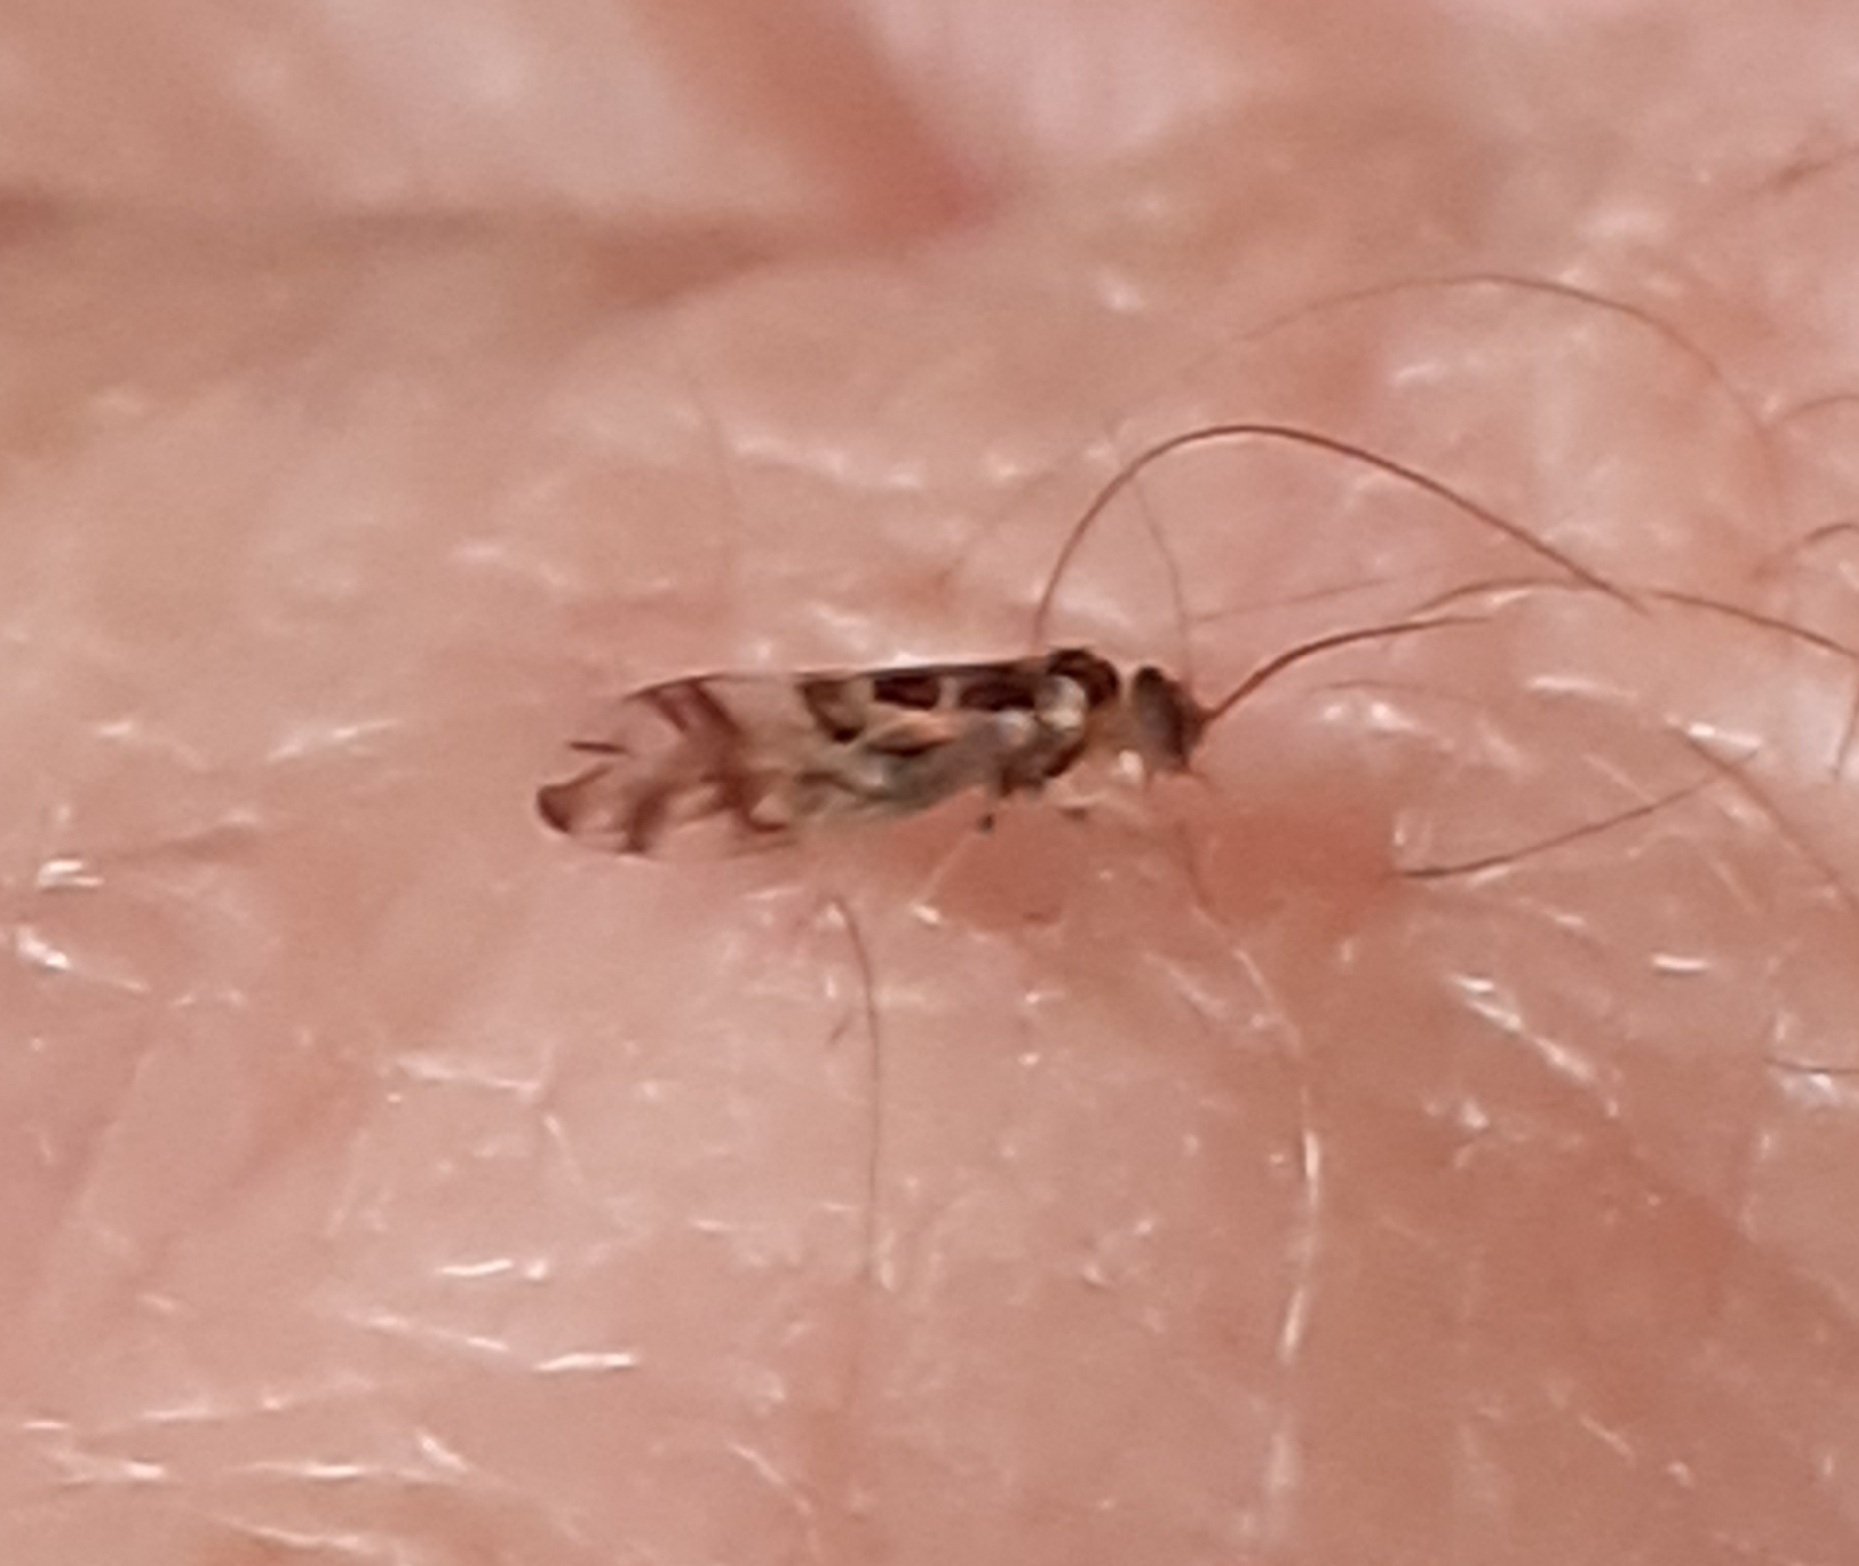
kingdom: Animalia
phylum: Arthropoda
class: Insecta
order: Psocodea
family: Stenopsocidae
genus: Graphopsocus
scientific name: Graphopsocus cruciatus
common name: Lizard bark louse
